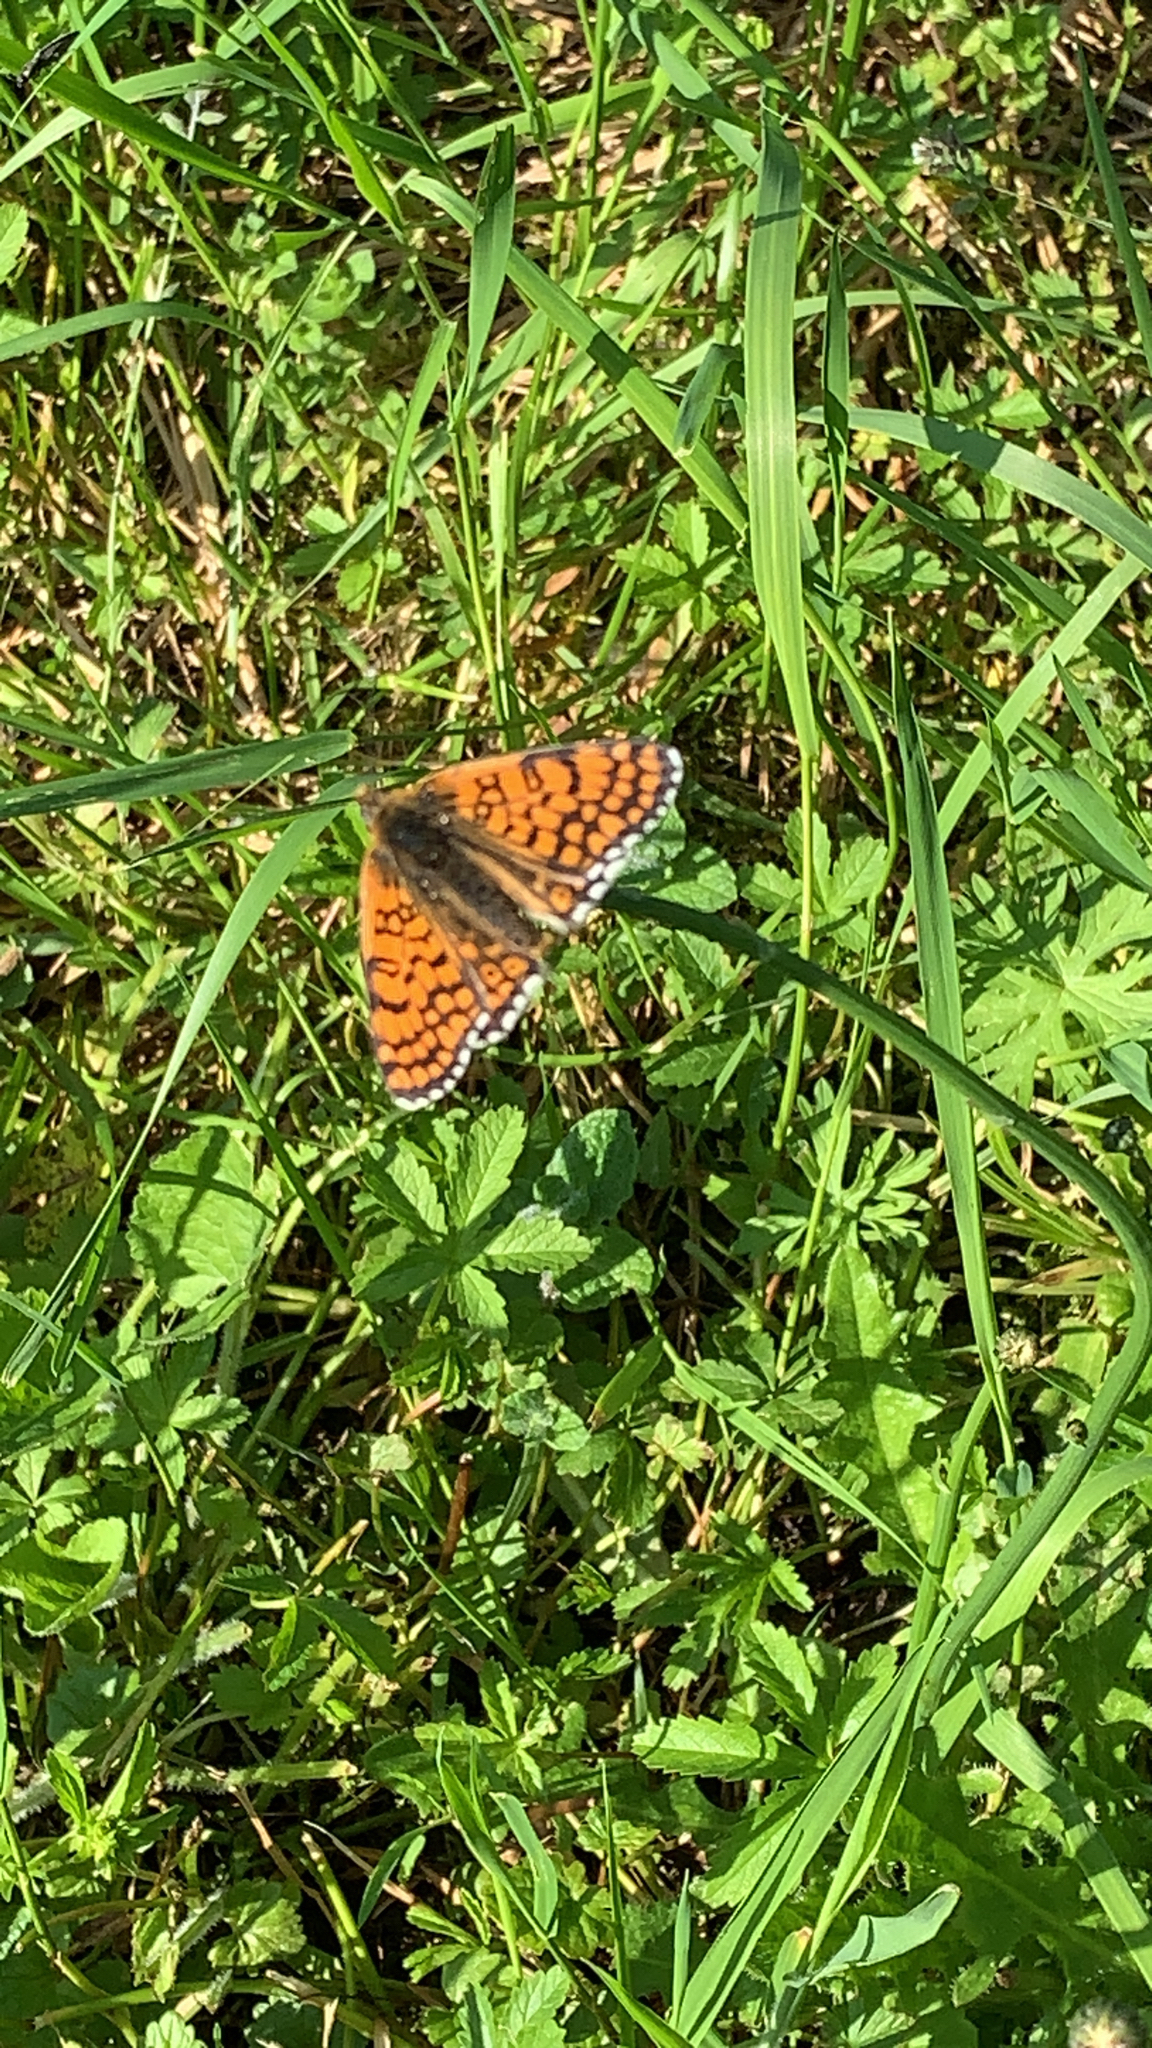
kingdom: Animalia
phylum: Arthropoda
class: Insecta
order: Lepidoptera
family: Nymphalidae
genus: Melitaea
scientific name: Melitaea cinxia
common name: Glanville fritillary
